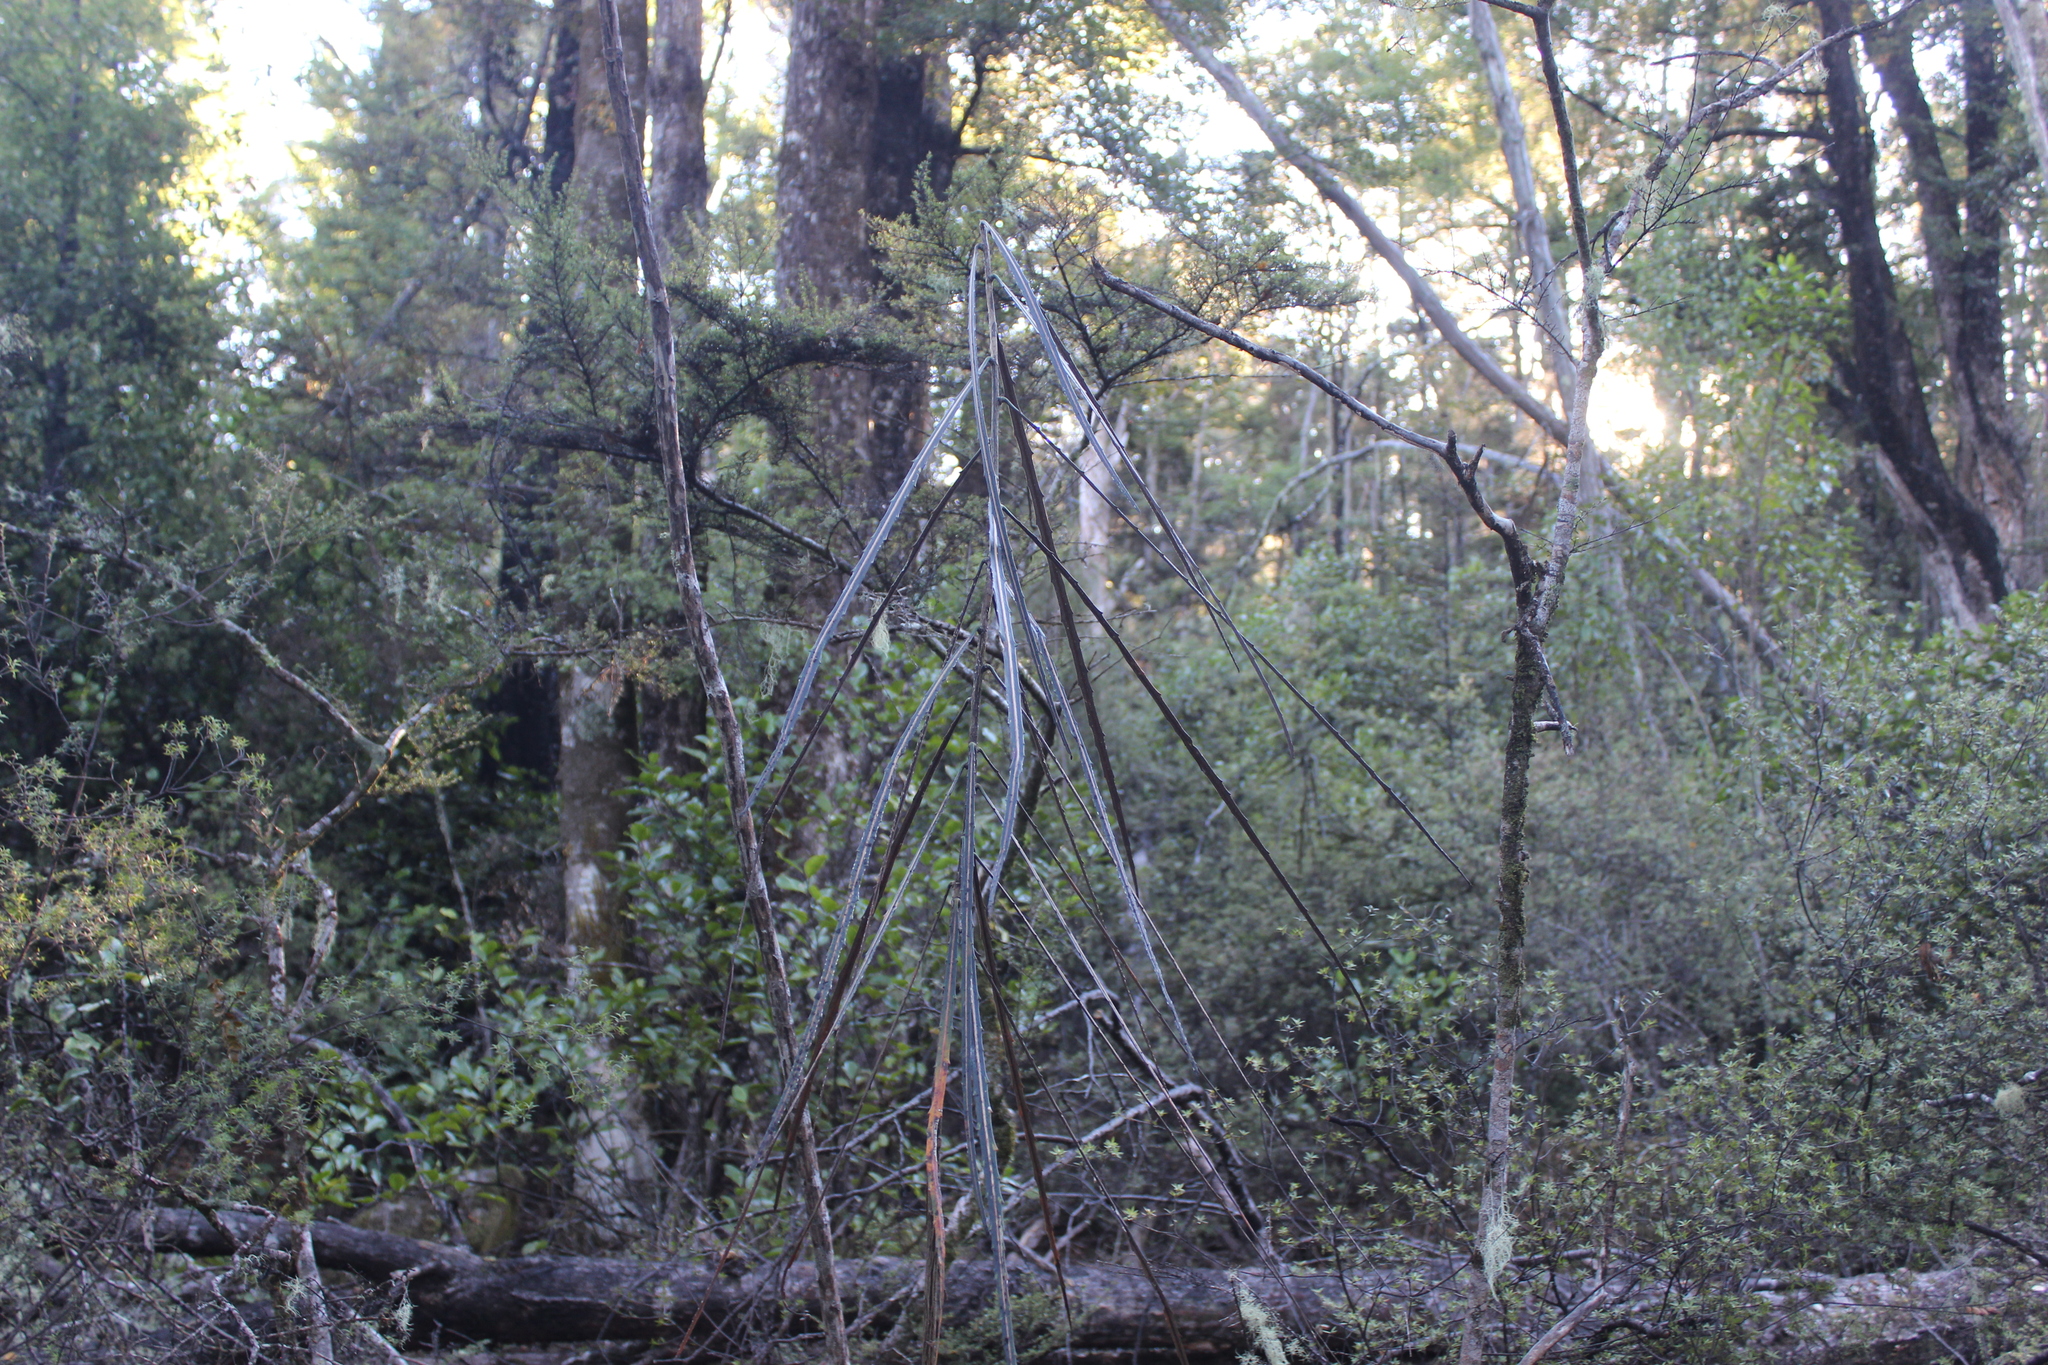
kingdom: Plantae
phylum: Tracheophyta
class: Magnoliopsida
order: Apiales
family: Araliaceae
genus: Pseudopanax
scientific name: Pseudopanax crassifolius
